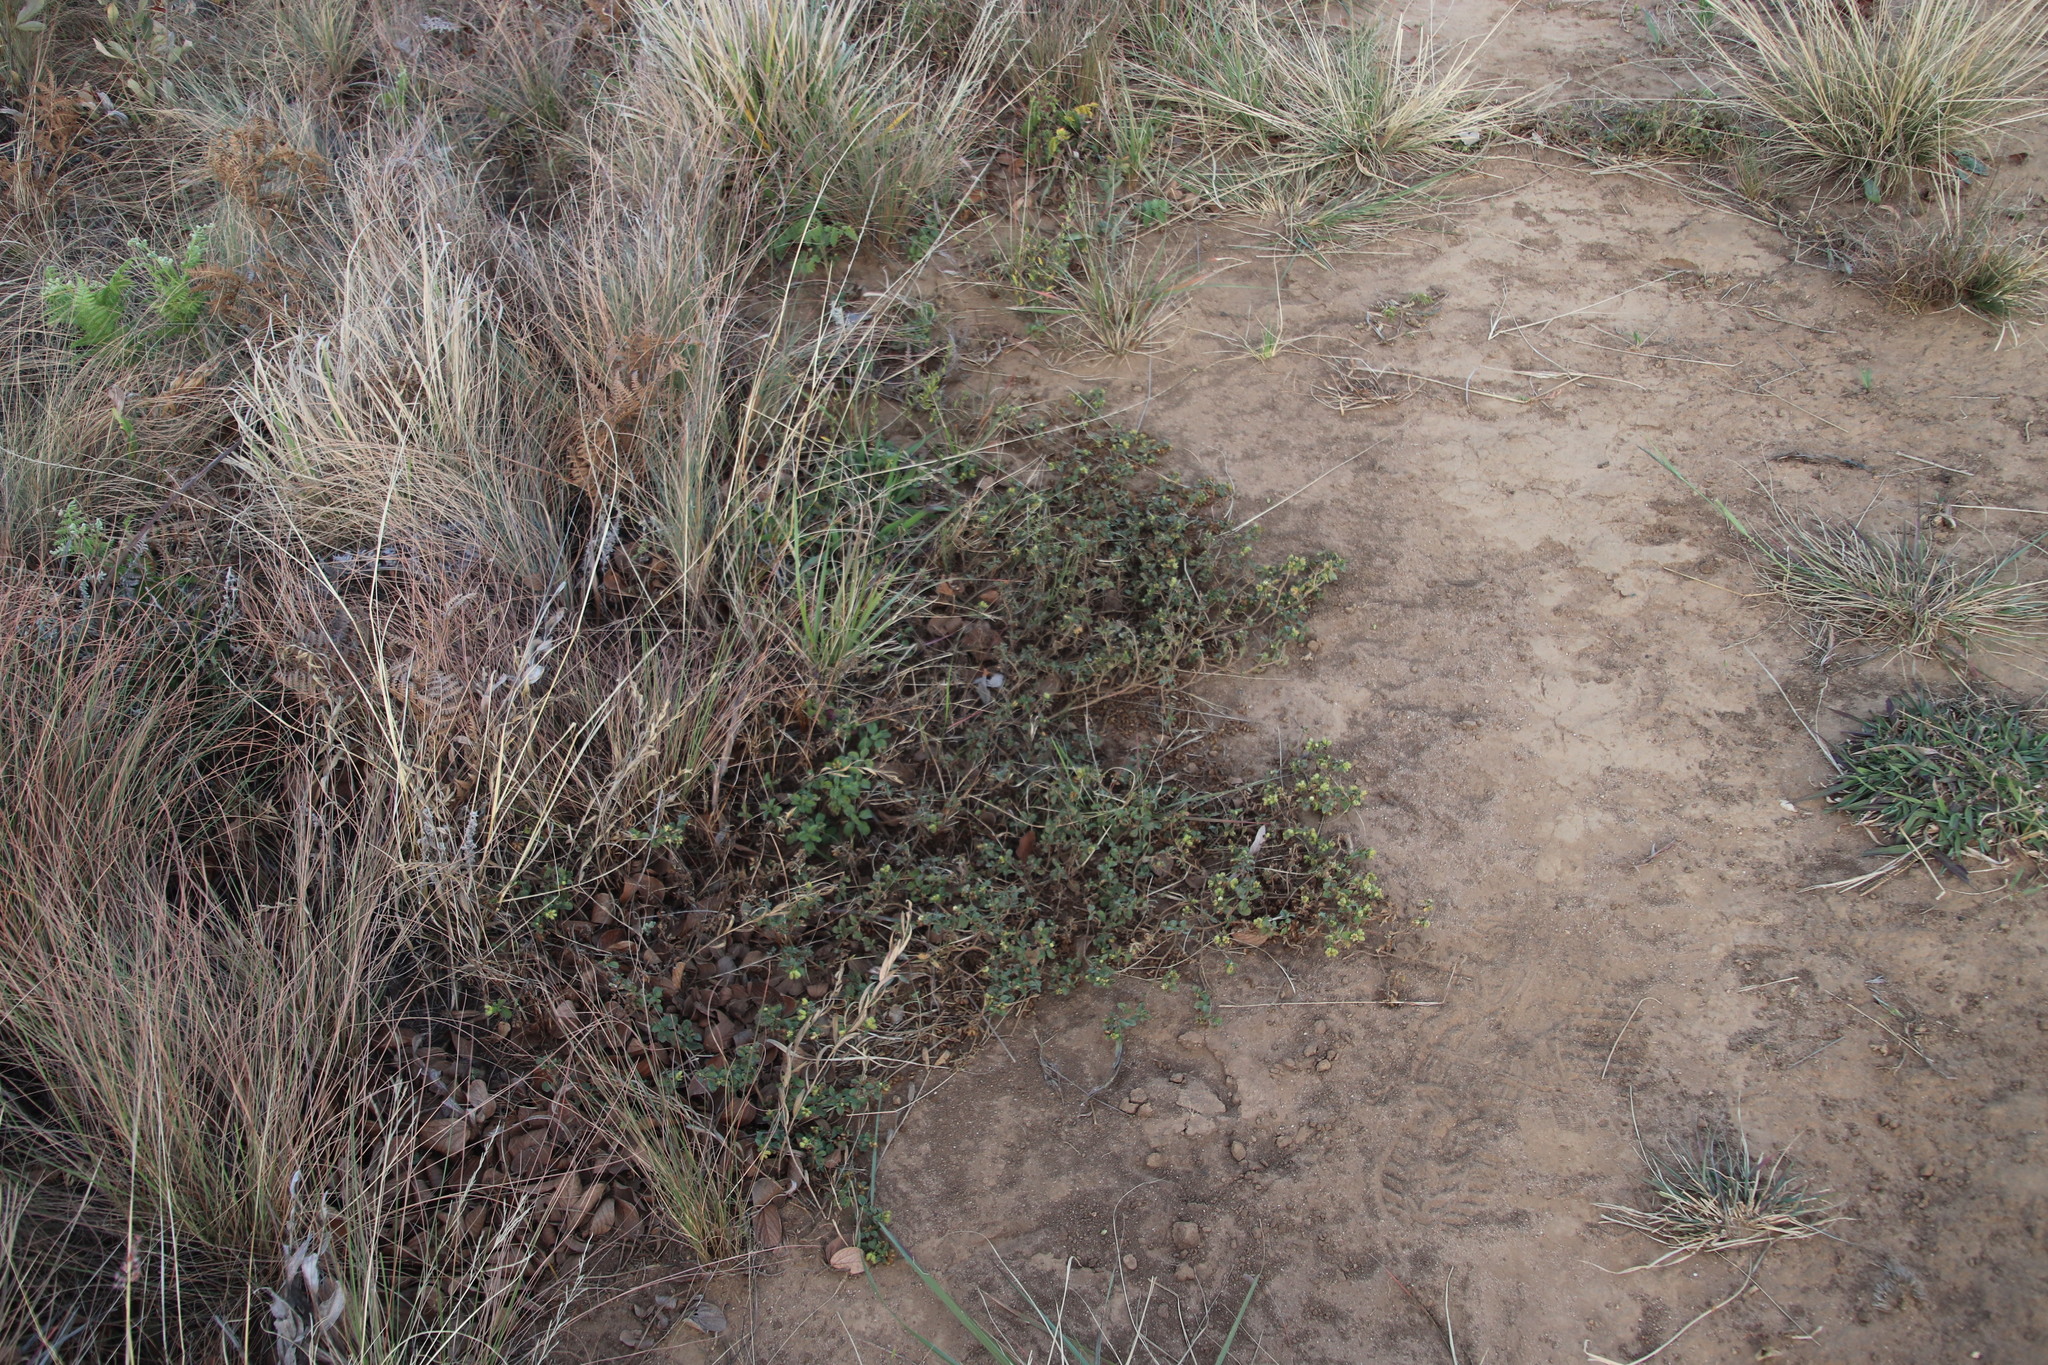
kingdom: Plantae
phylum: Tracheophyta
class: Magnoliopsida
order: Asterales
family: Asteraceae
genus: Acanthospermum
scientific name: Acanthospermum australe
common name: Paraguayan starbur
